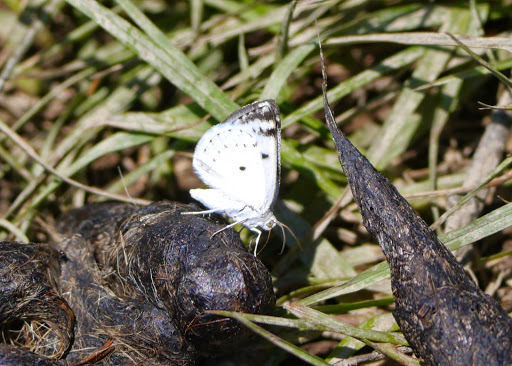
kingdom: Animalia
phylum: Arthropoda
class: Insecta
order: Lepidoptera
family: Geometridae
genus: Lomographa
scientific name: Lomographa semiclarata
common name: Bluish spring moth
